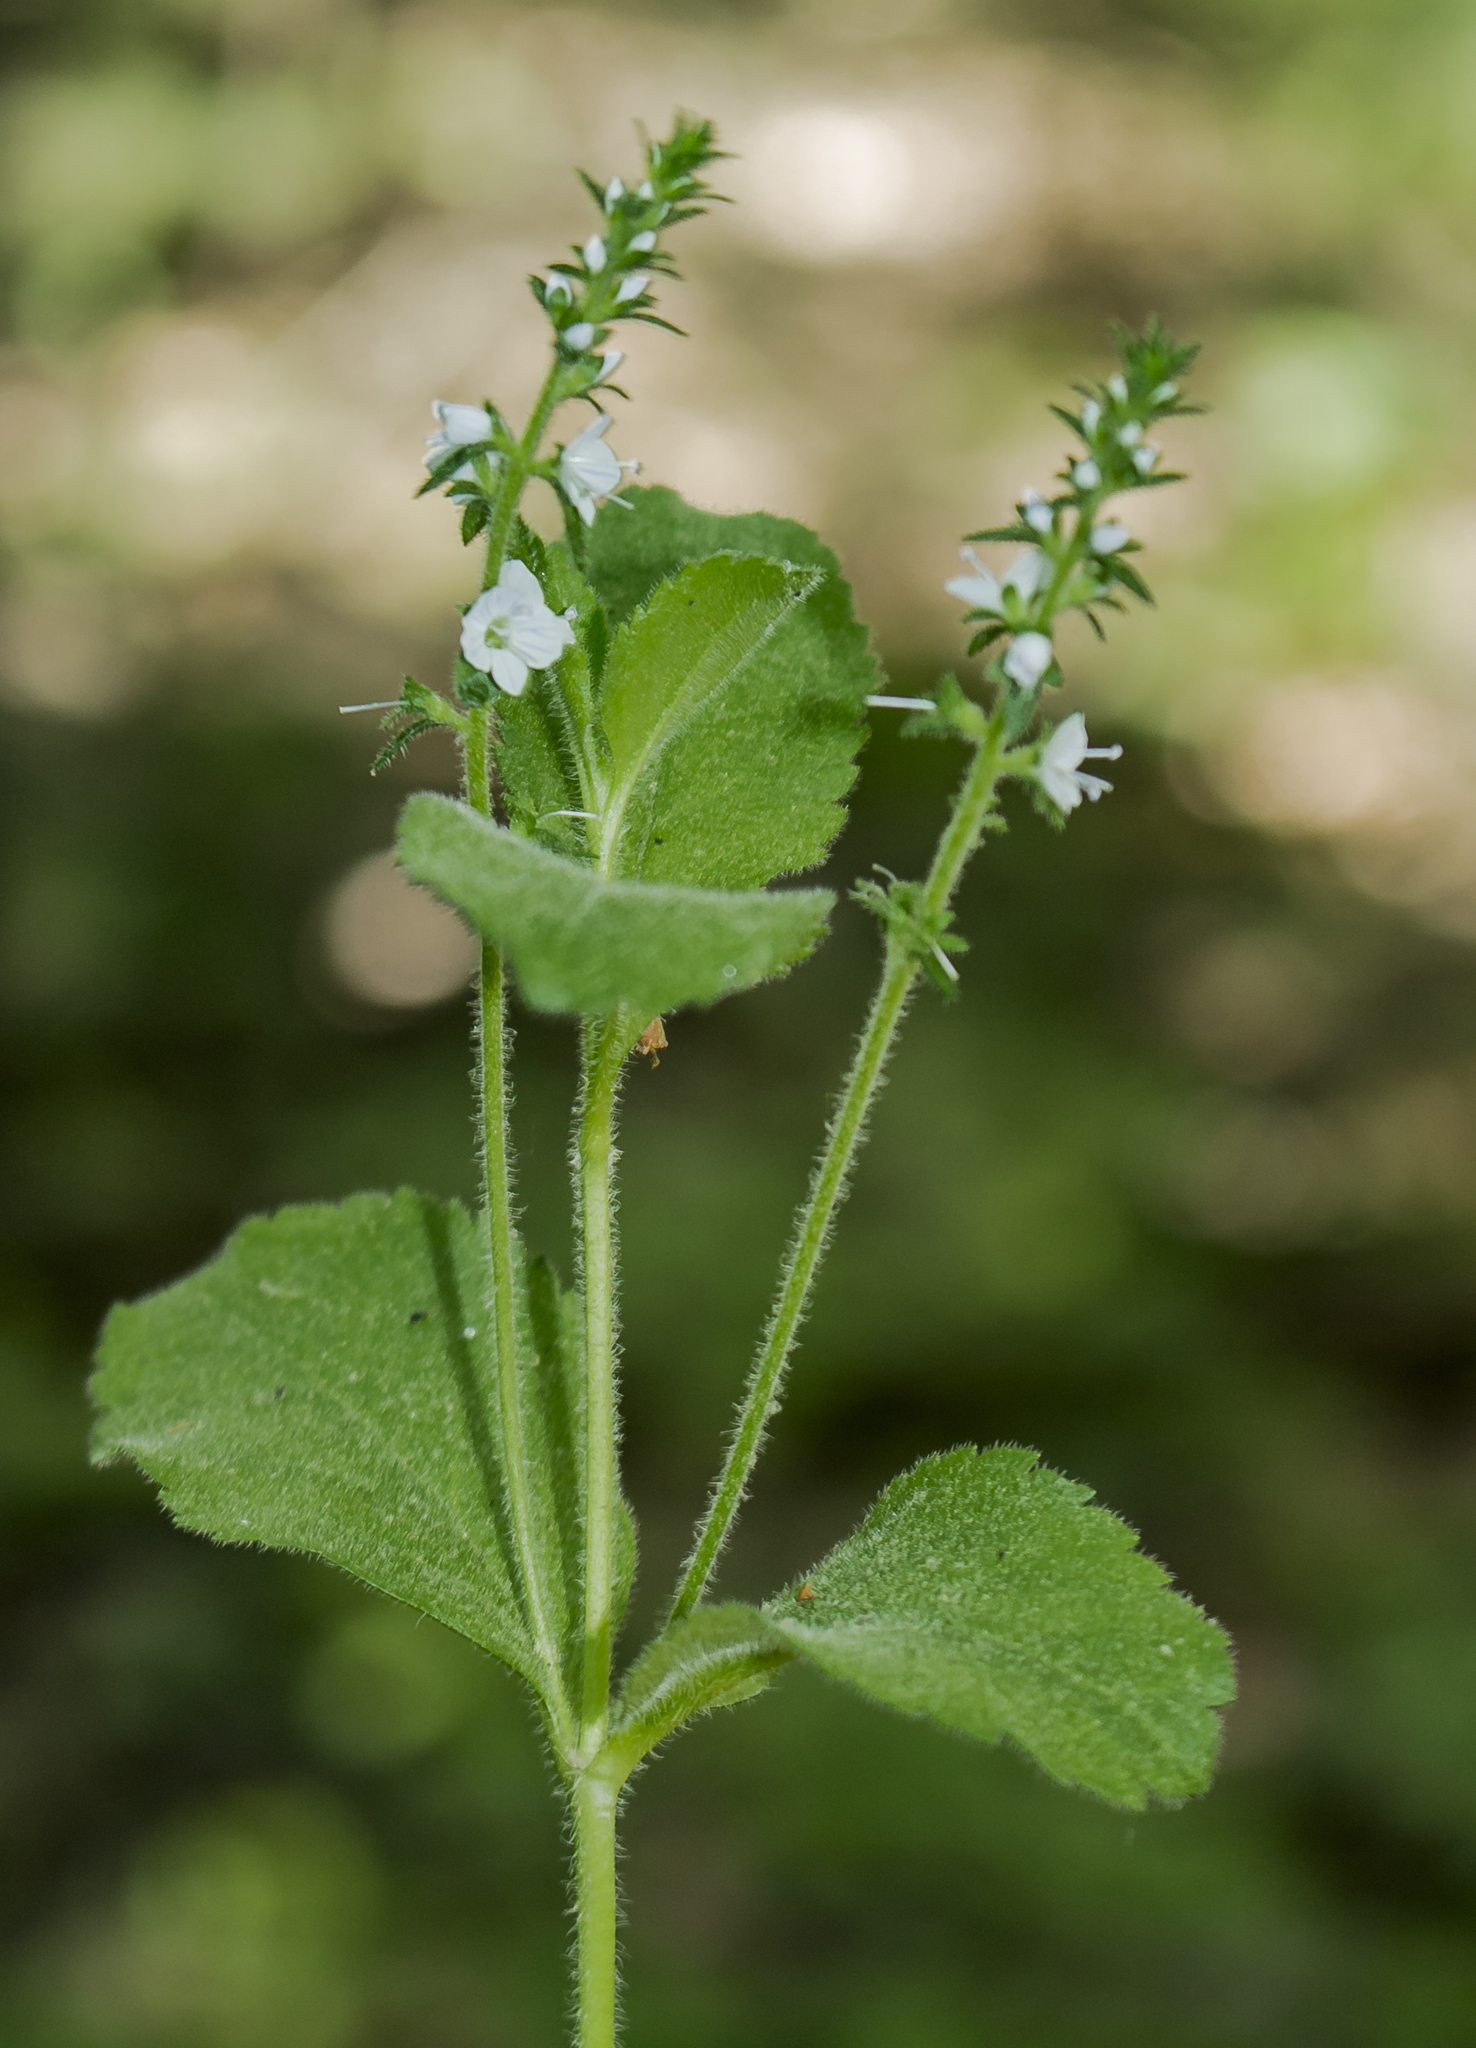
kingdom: Plantae
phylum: Tracheophyta
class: Magnoliopsida
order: Lamiales
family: Plantaginaceae
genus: Veronica
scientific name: Veronica officinalis
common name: Common speedwell
